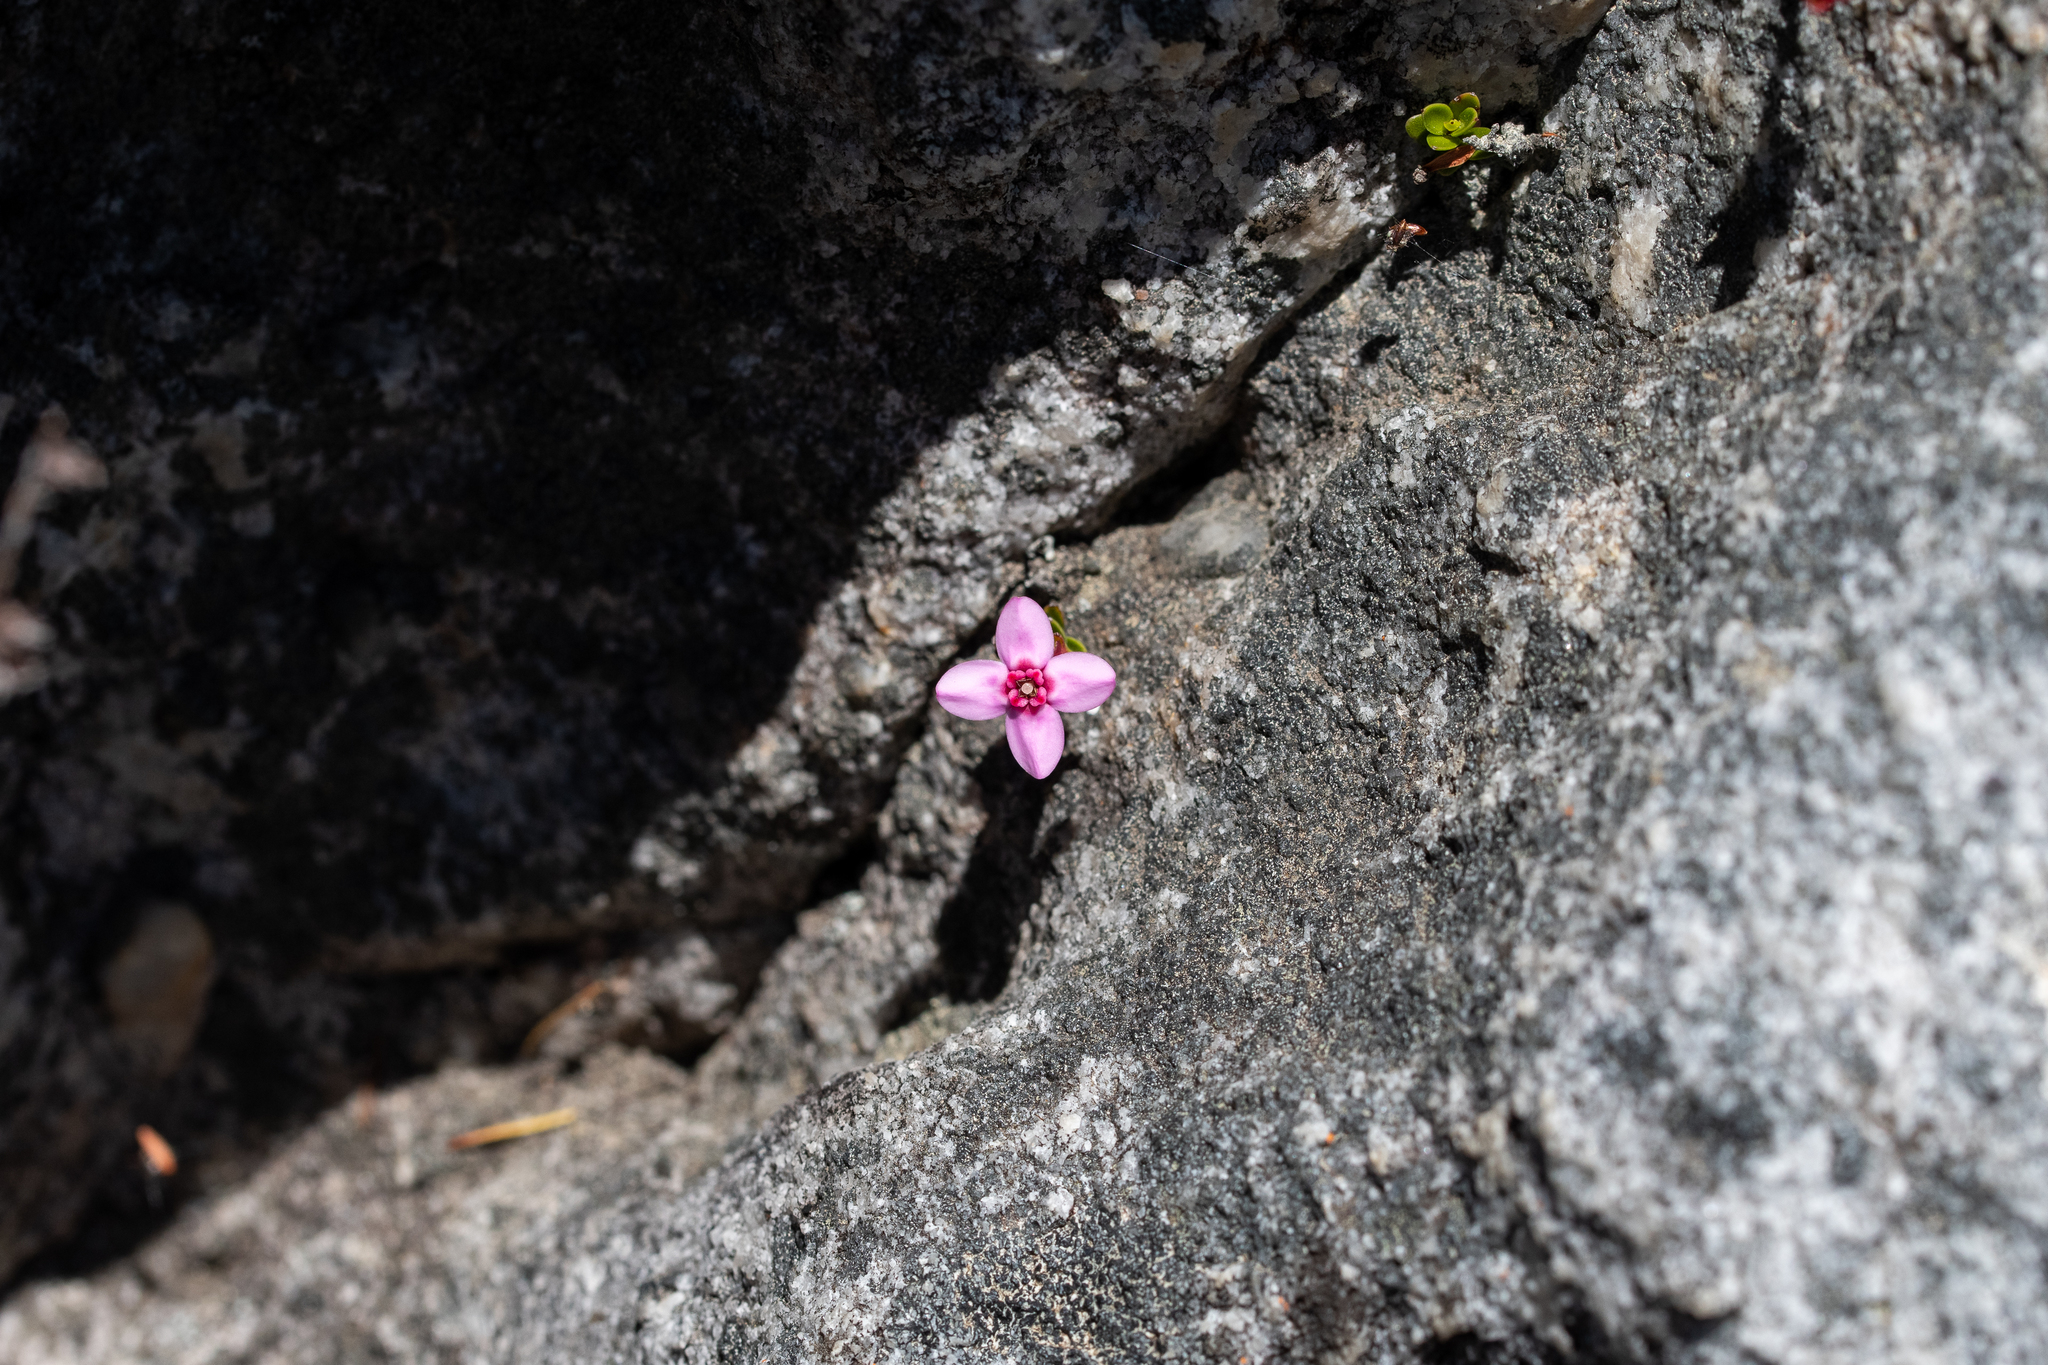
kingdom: Plantae
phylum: Tracheophyta
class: Magnoliopsida
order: Myrtales
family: Penaeaceae
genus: Sonderothamnus
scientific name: Sonderothamnus petraeus
